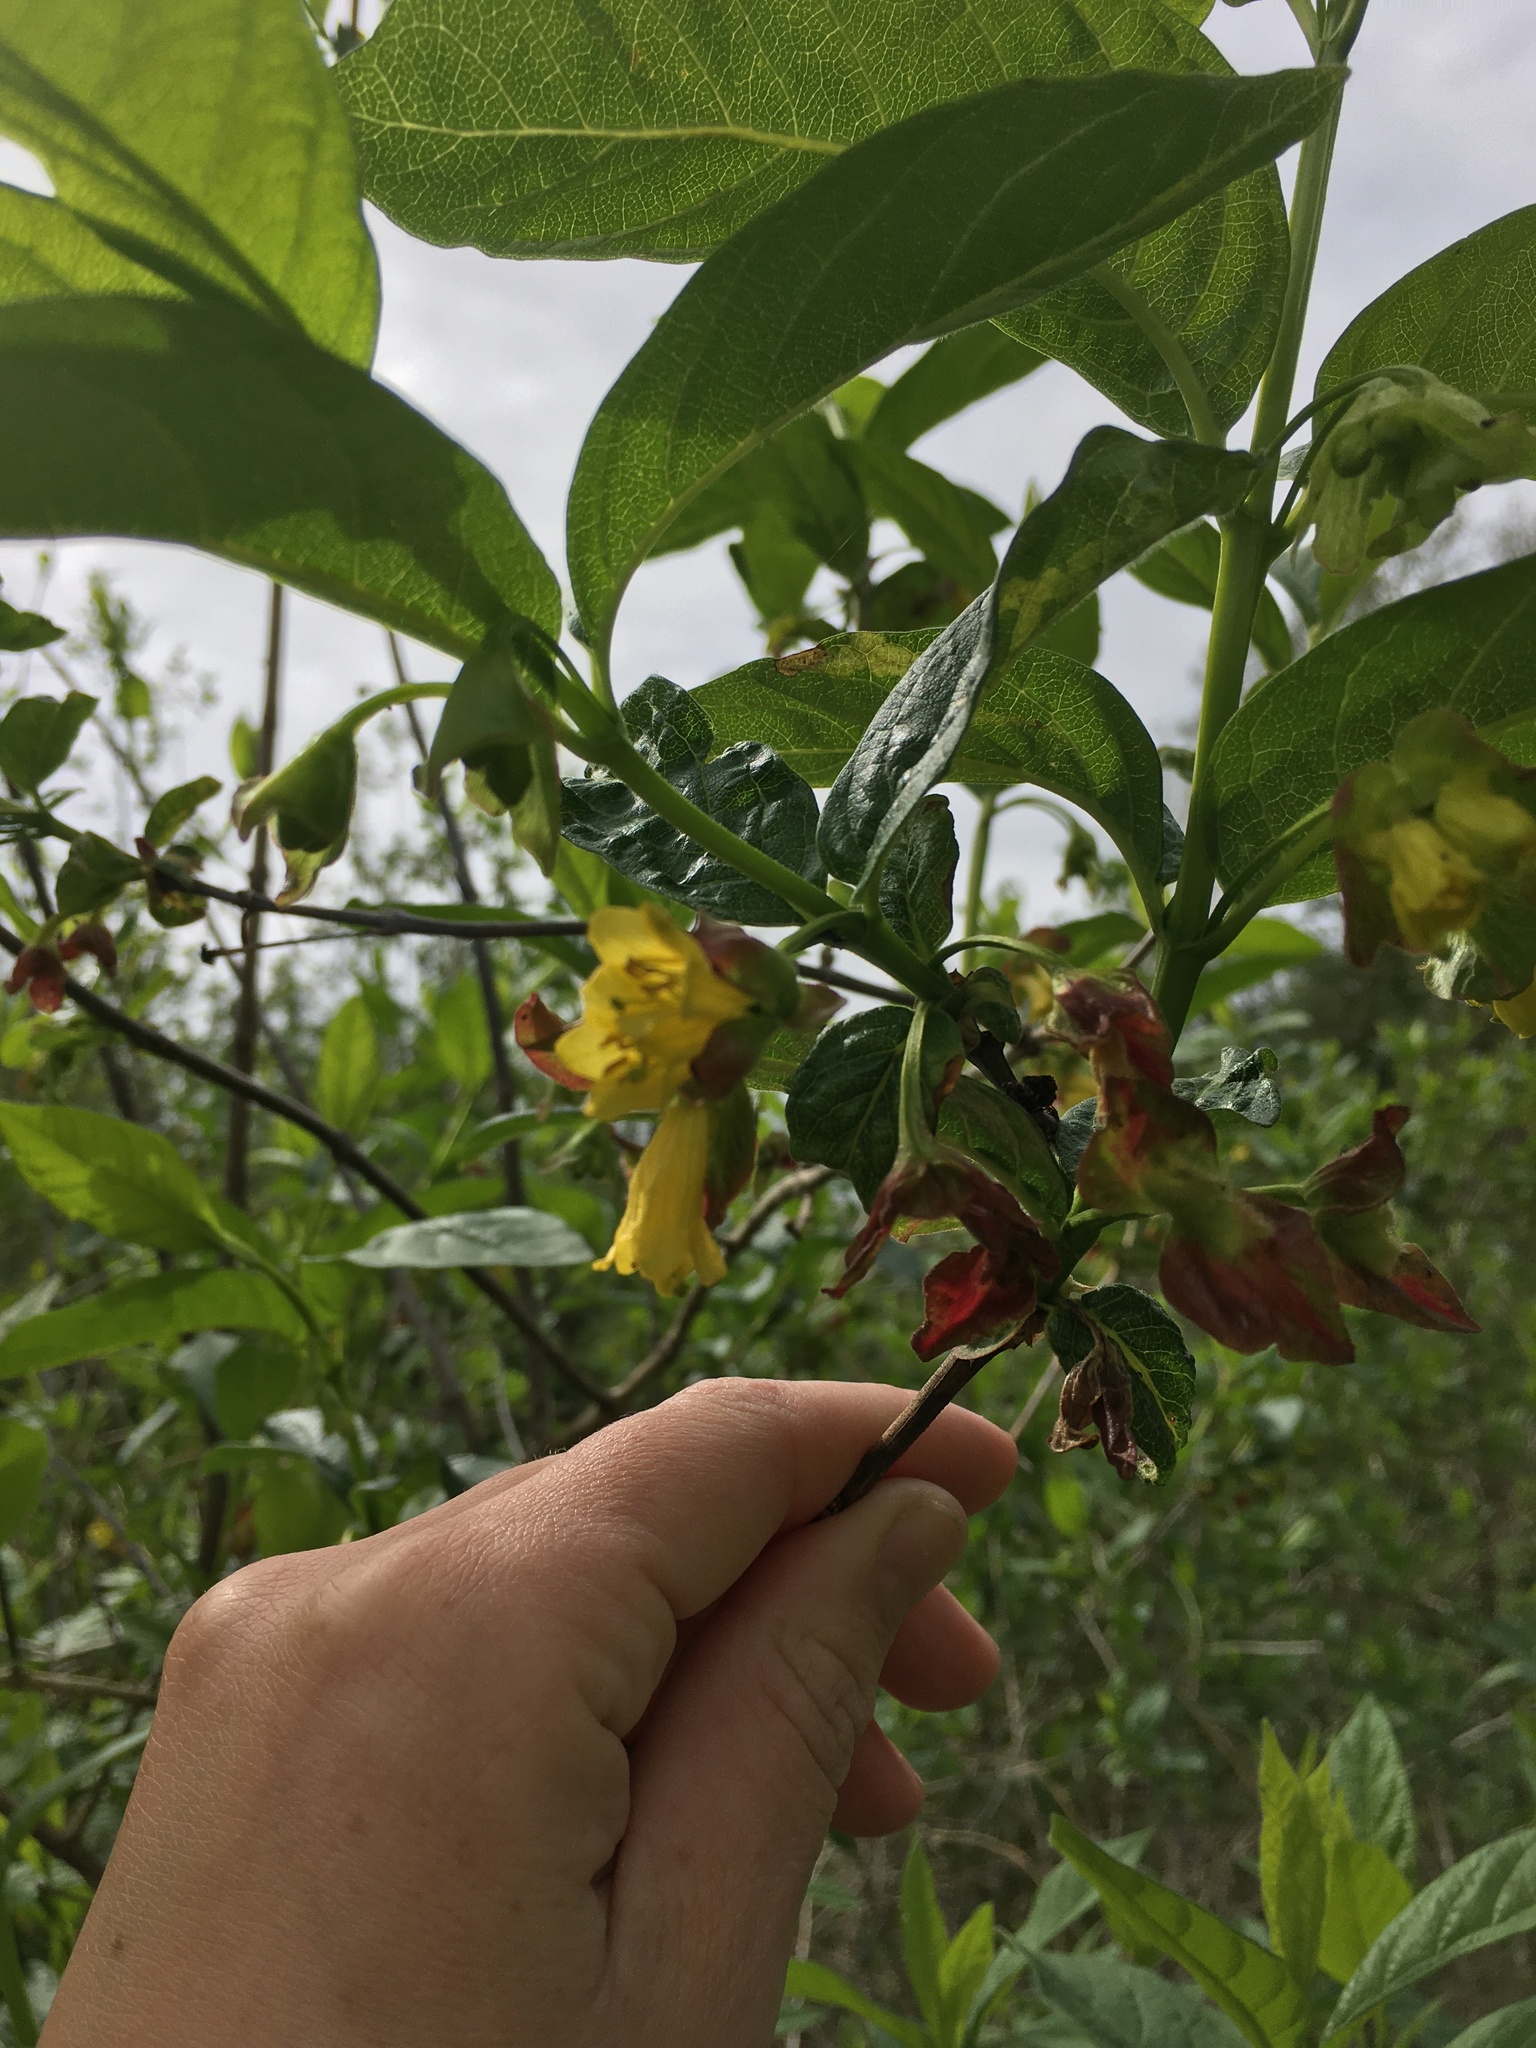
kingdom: Plantae
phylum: Tracheophyta
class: Magnoliopsida
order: Dipsacales
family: Caprifoliaceae
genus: Lonicera
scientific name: Lonicera involucrata
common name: Californian honeysuckle
